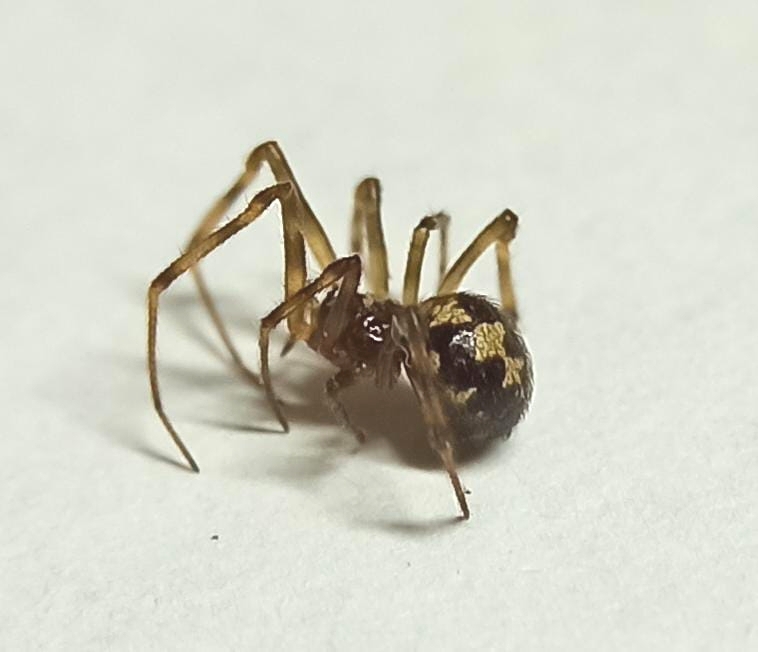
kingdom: Animalia
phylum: Arthropoda
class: Arachnida
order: Araneae
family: Theridiidae
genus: Steatoda
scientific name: Steatoda triangulosa
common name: Triangulate bud spider
